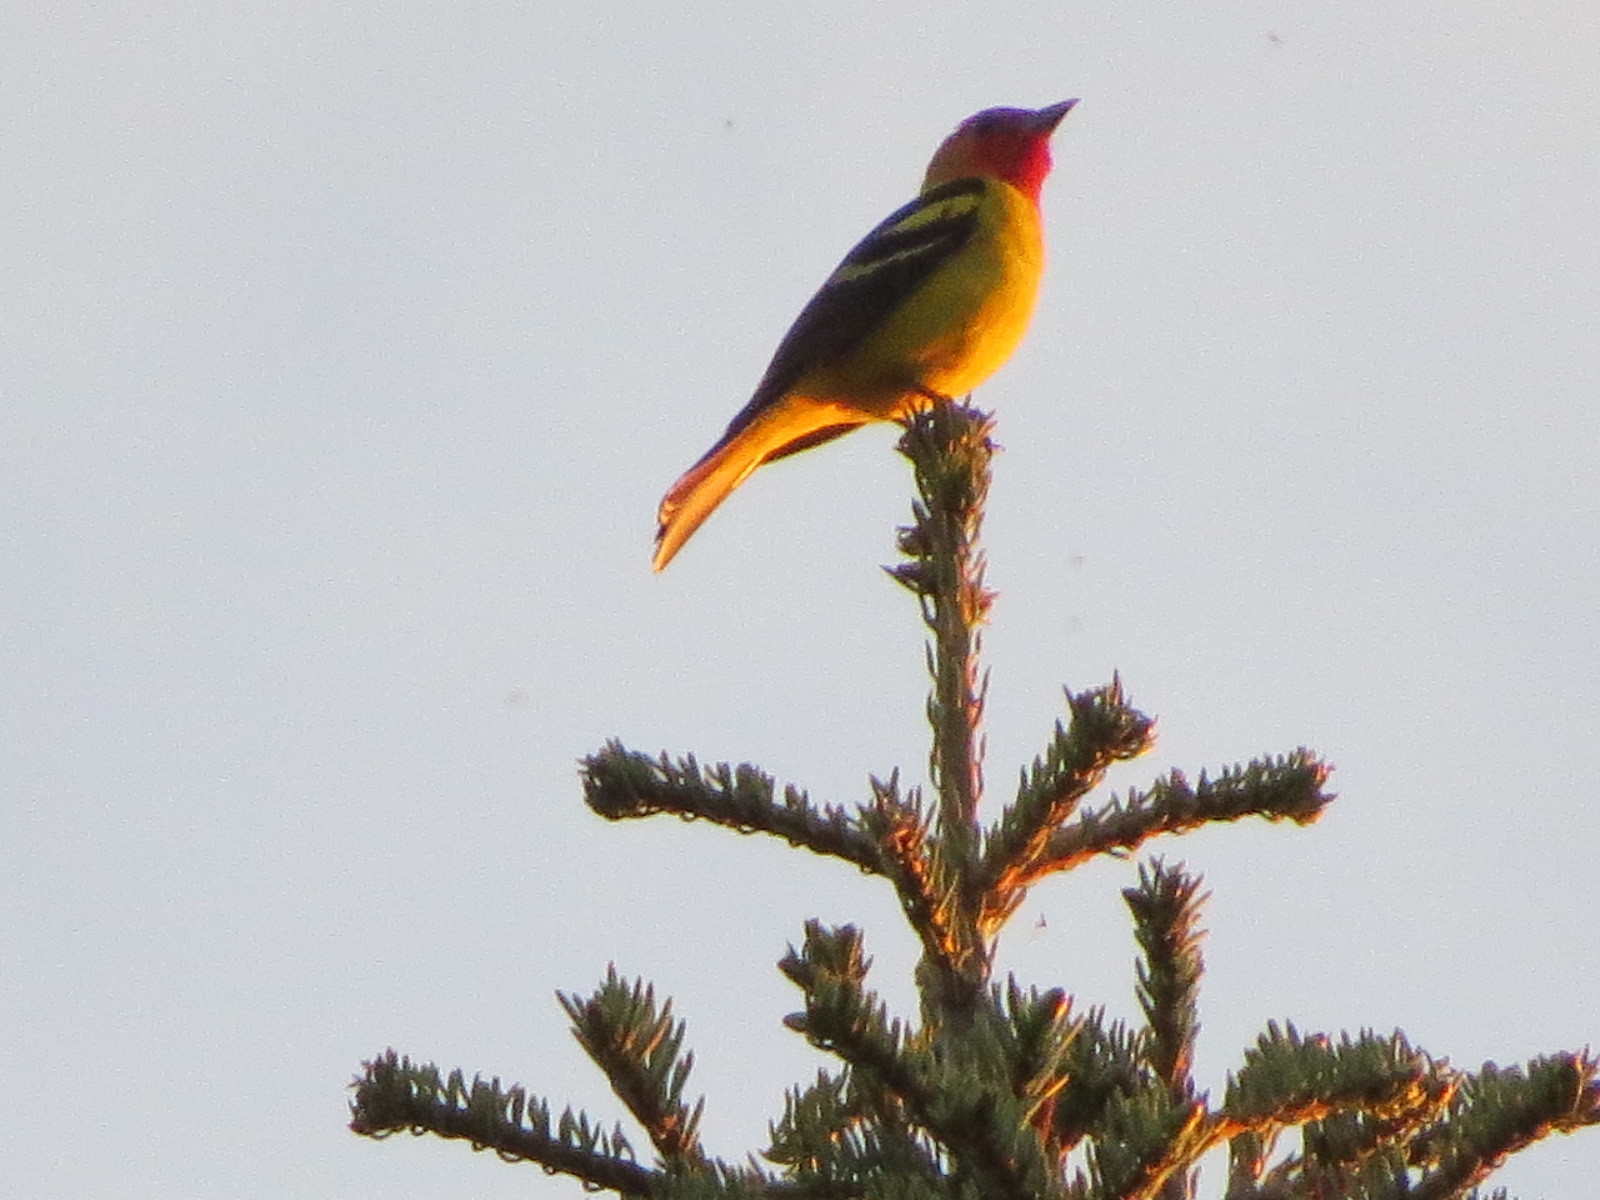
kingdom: Animalia
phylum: Chordata
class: Aves
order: Passeriformes
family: Cardinalidae
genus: Piranga
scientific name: Piranga ludoviciana
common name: Western tanager
